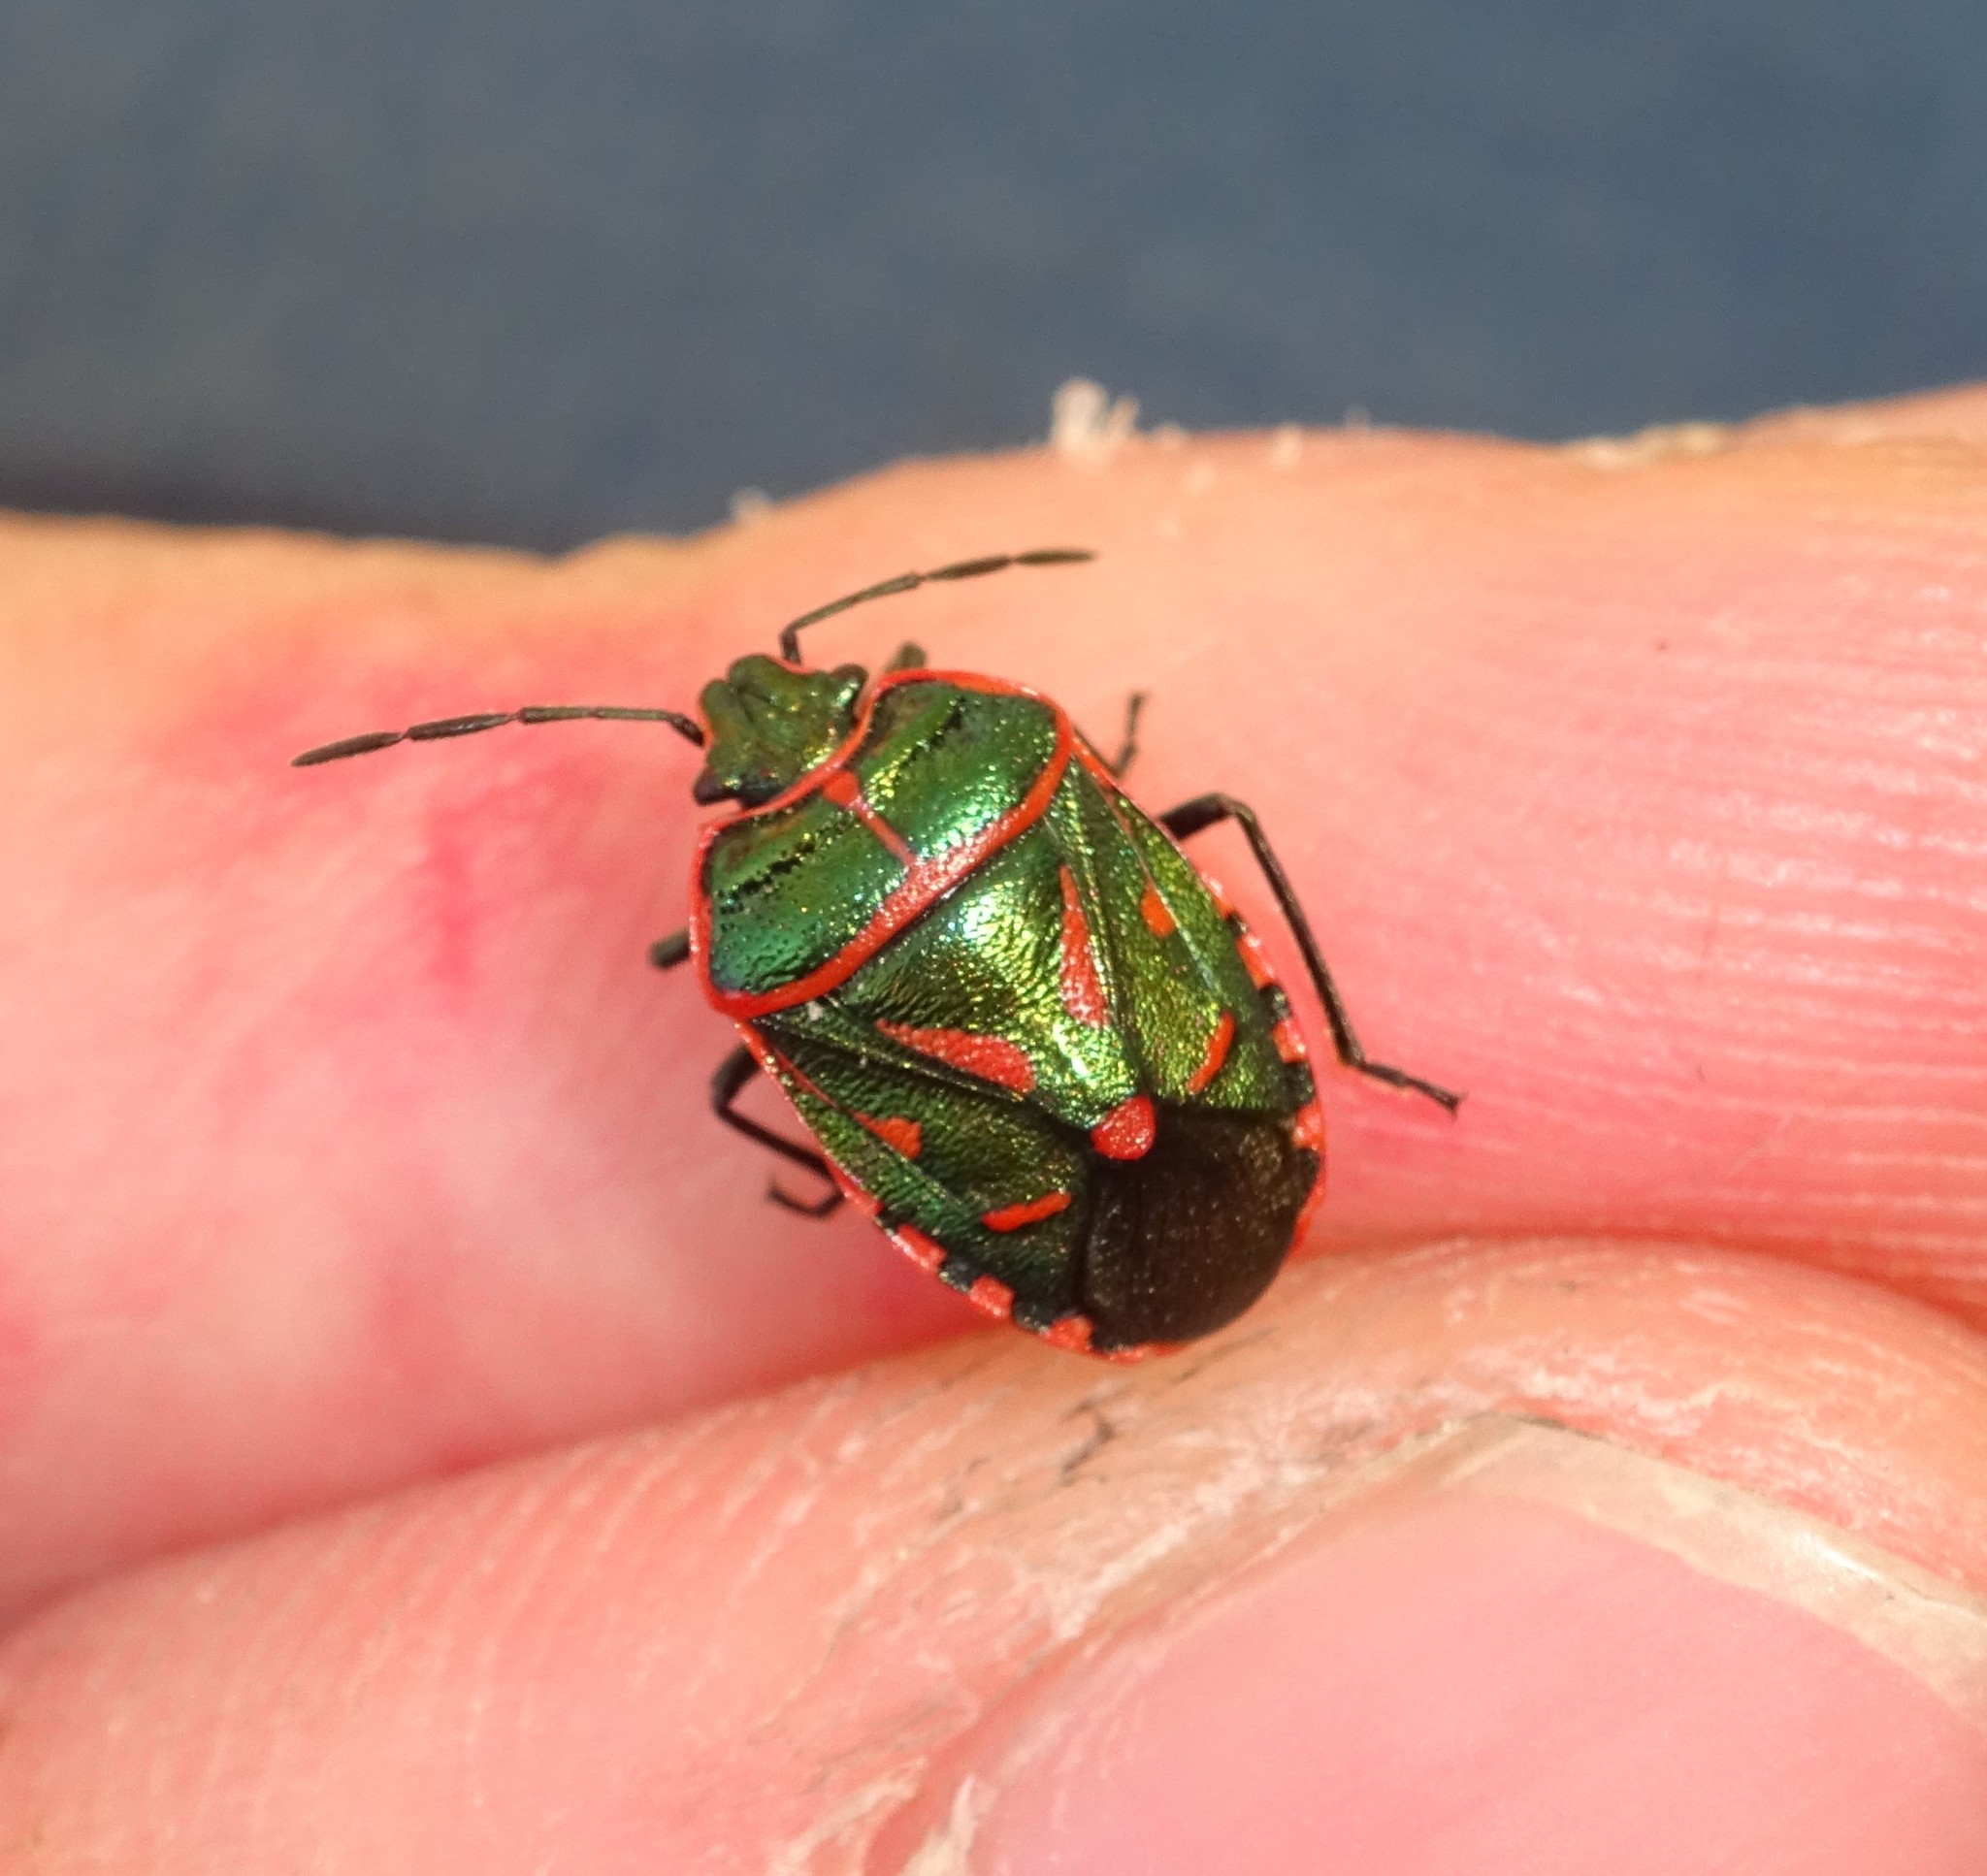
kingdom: Animalia
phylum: Arthropoda
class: Insecta
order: Hemiptera
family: Pentatomidae
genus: Eurydema
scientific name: Eurydema rotundicollis
